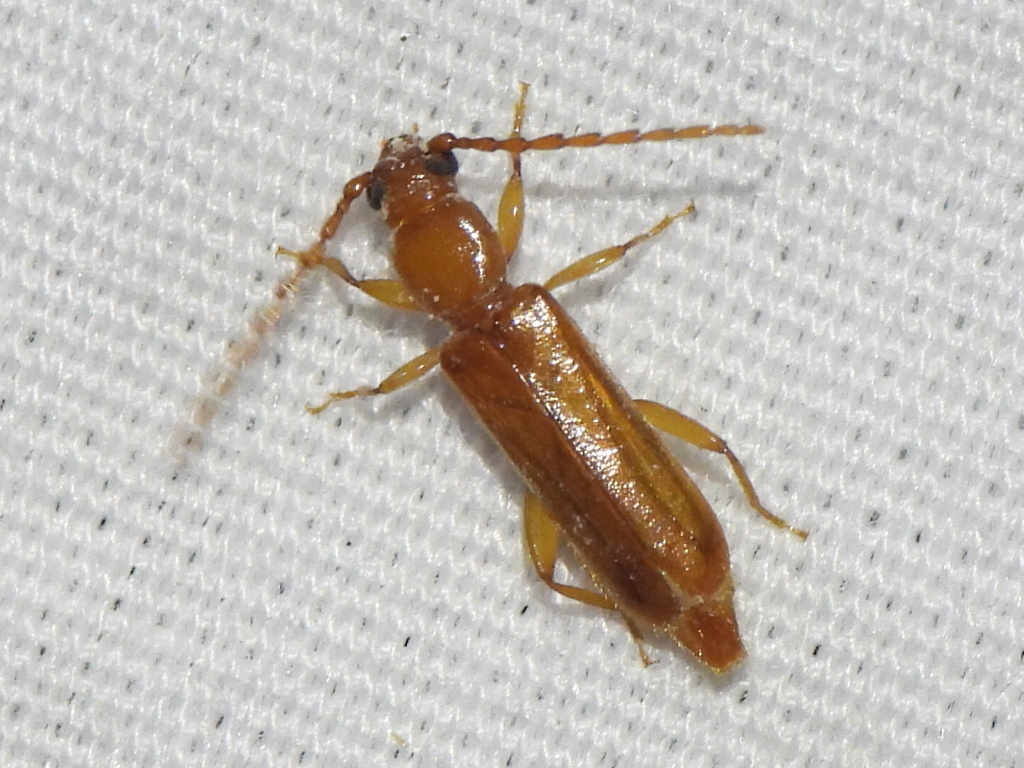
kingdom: Animalia
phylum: Arthropoda
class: Insecta
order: Coleoptera
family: Cerambycidae
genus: Smodicum
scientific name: Smodicum cucujiforme
